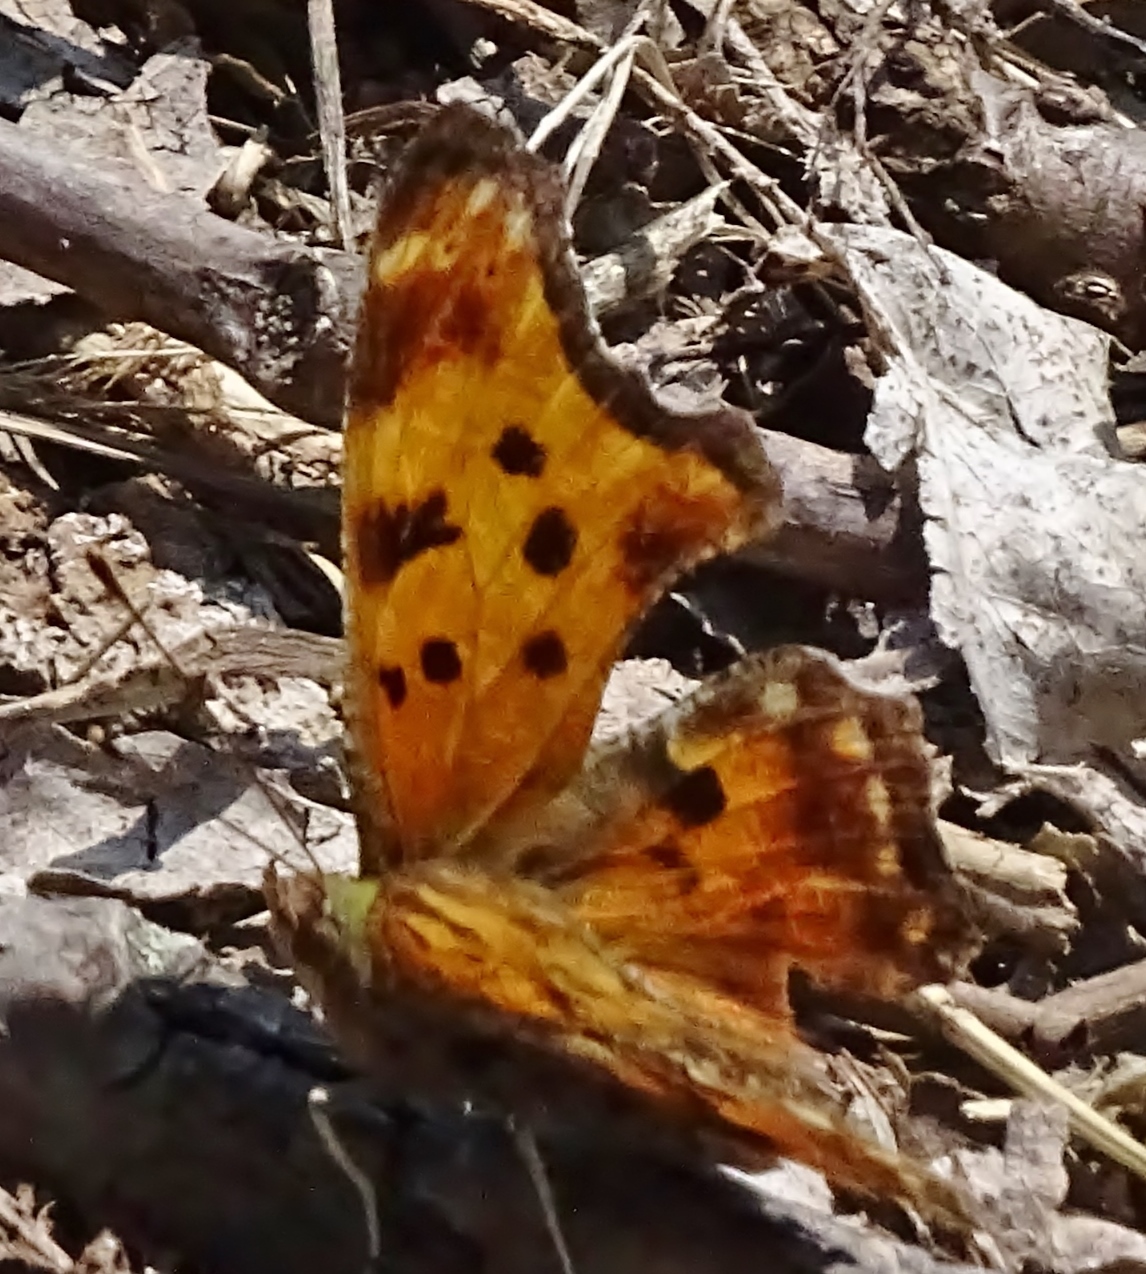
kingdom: Animalia
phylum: Arthropoda
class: Insecta
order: Lepidoptera
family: Nymphalidae
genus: Polygonia
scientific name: Polygonia comma
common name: Eastern comma
